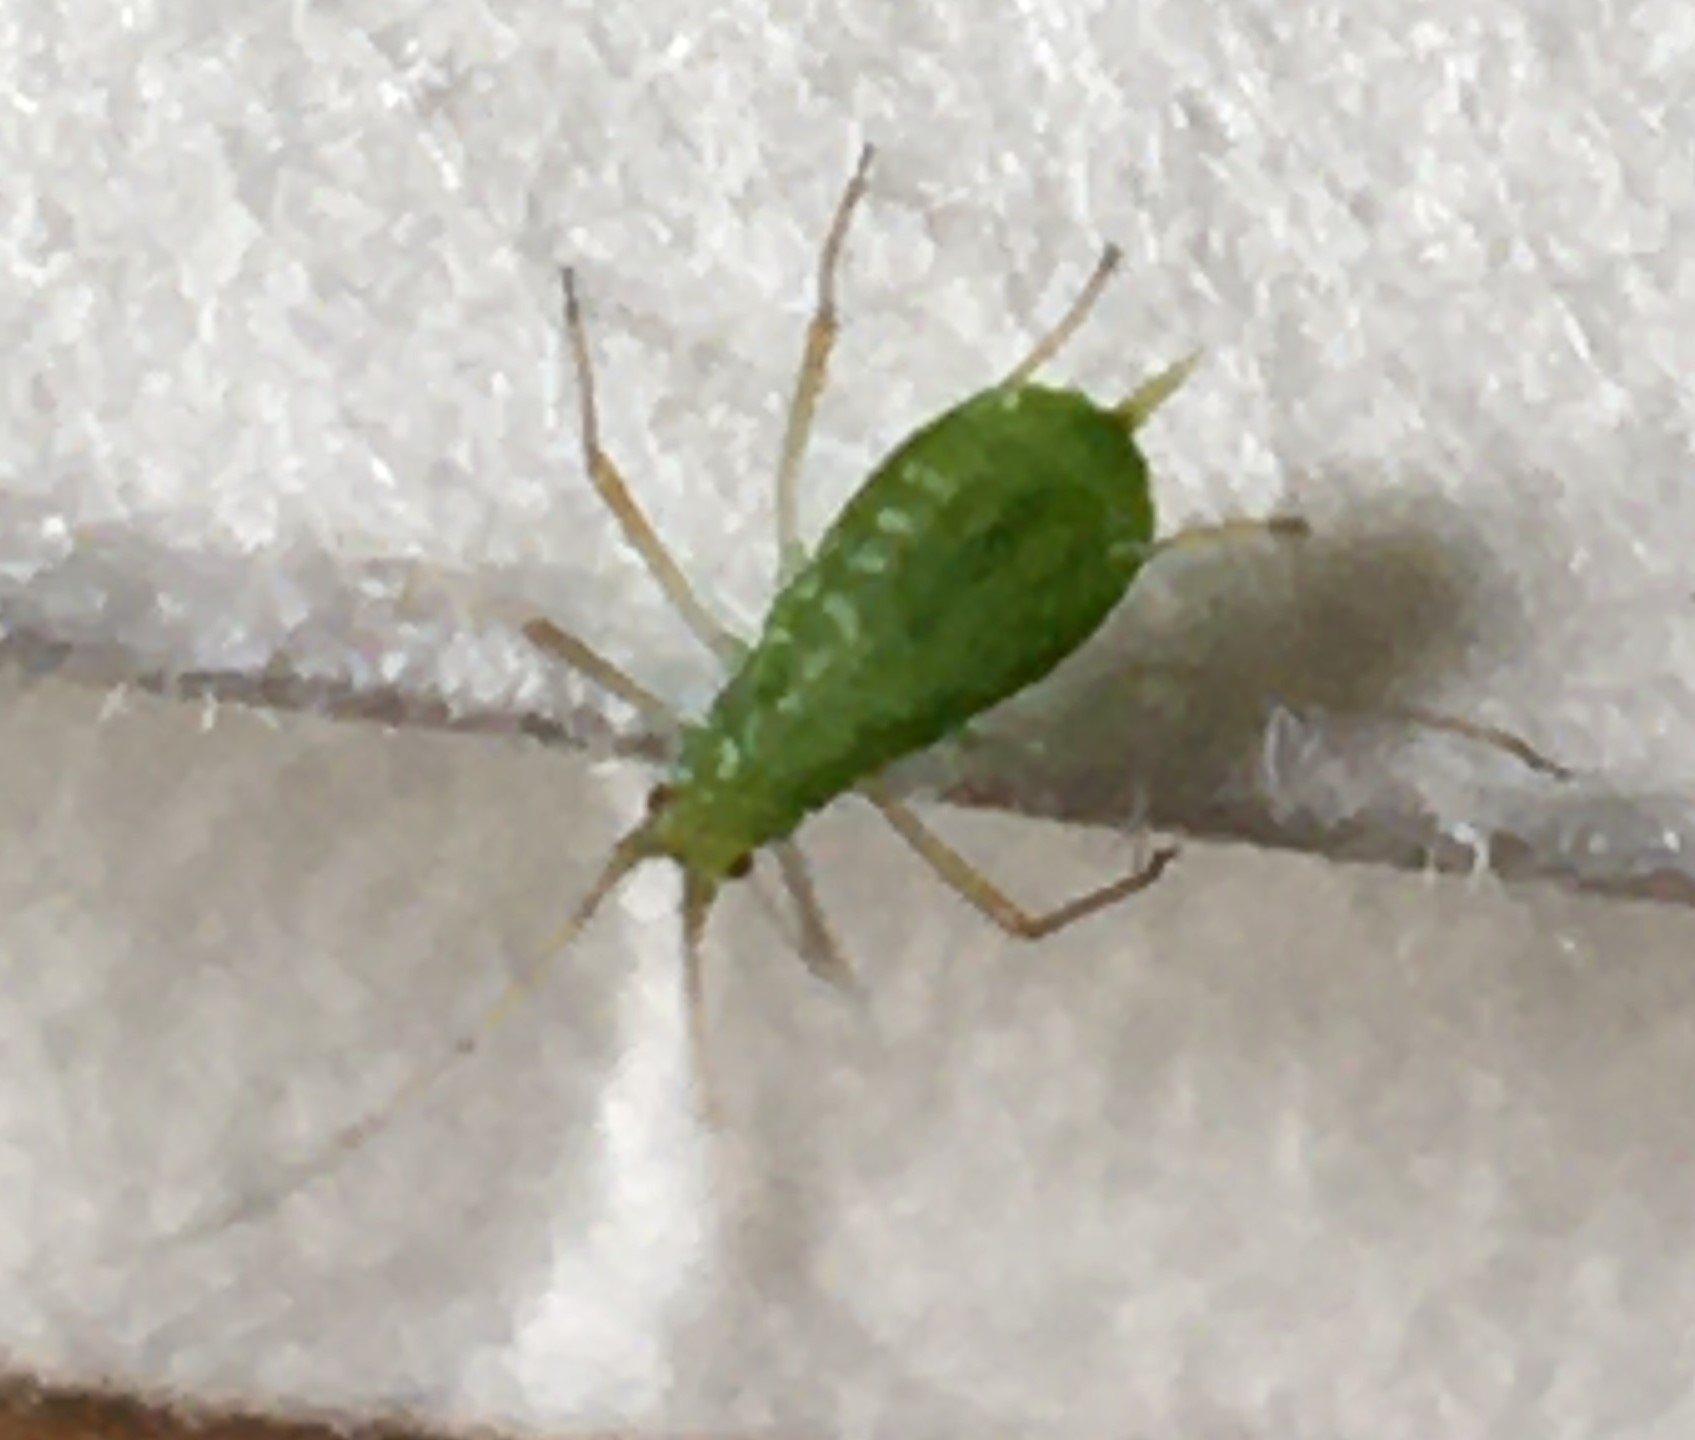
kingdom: Plantae
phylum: Tracheophyta
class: Magnoliopsida
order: Apiales
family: Apiaceae
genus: Chaerophyllum
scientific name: Chaerophyllum tainturieri
